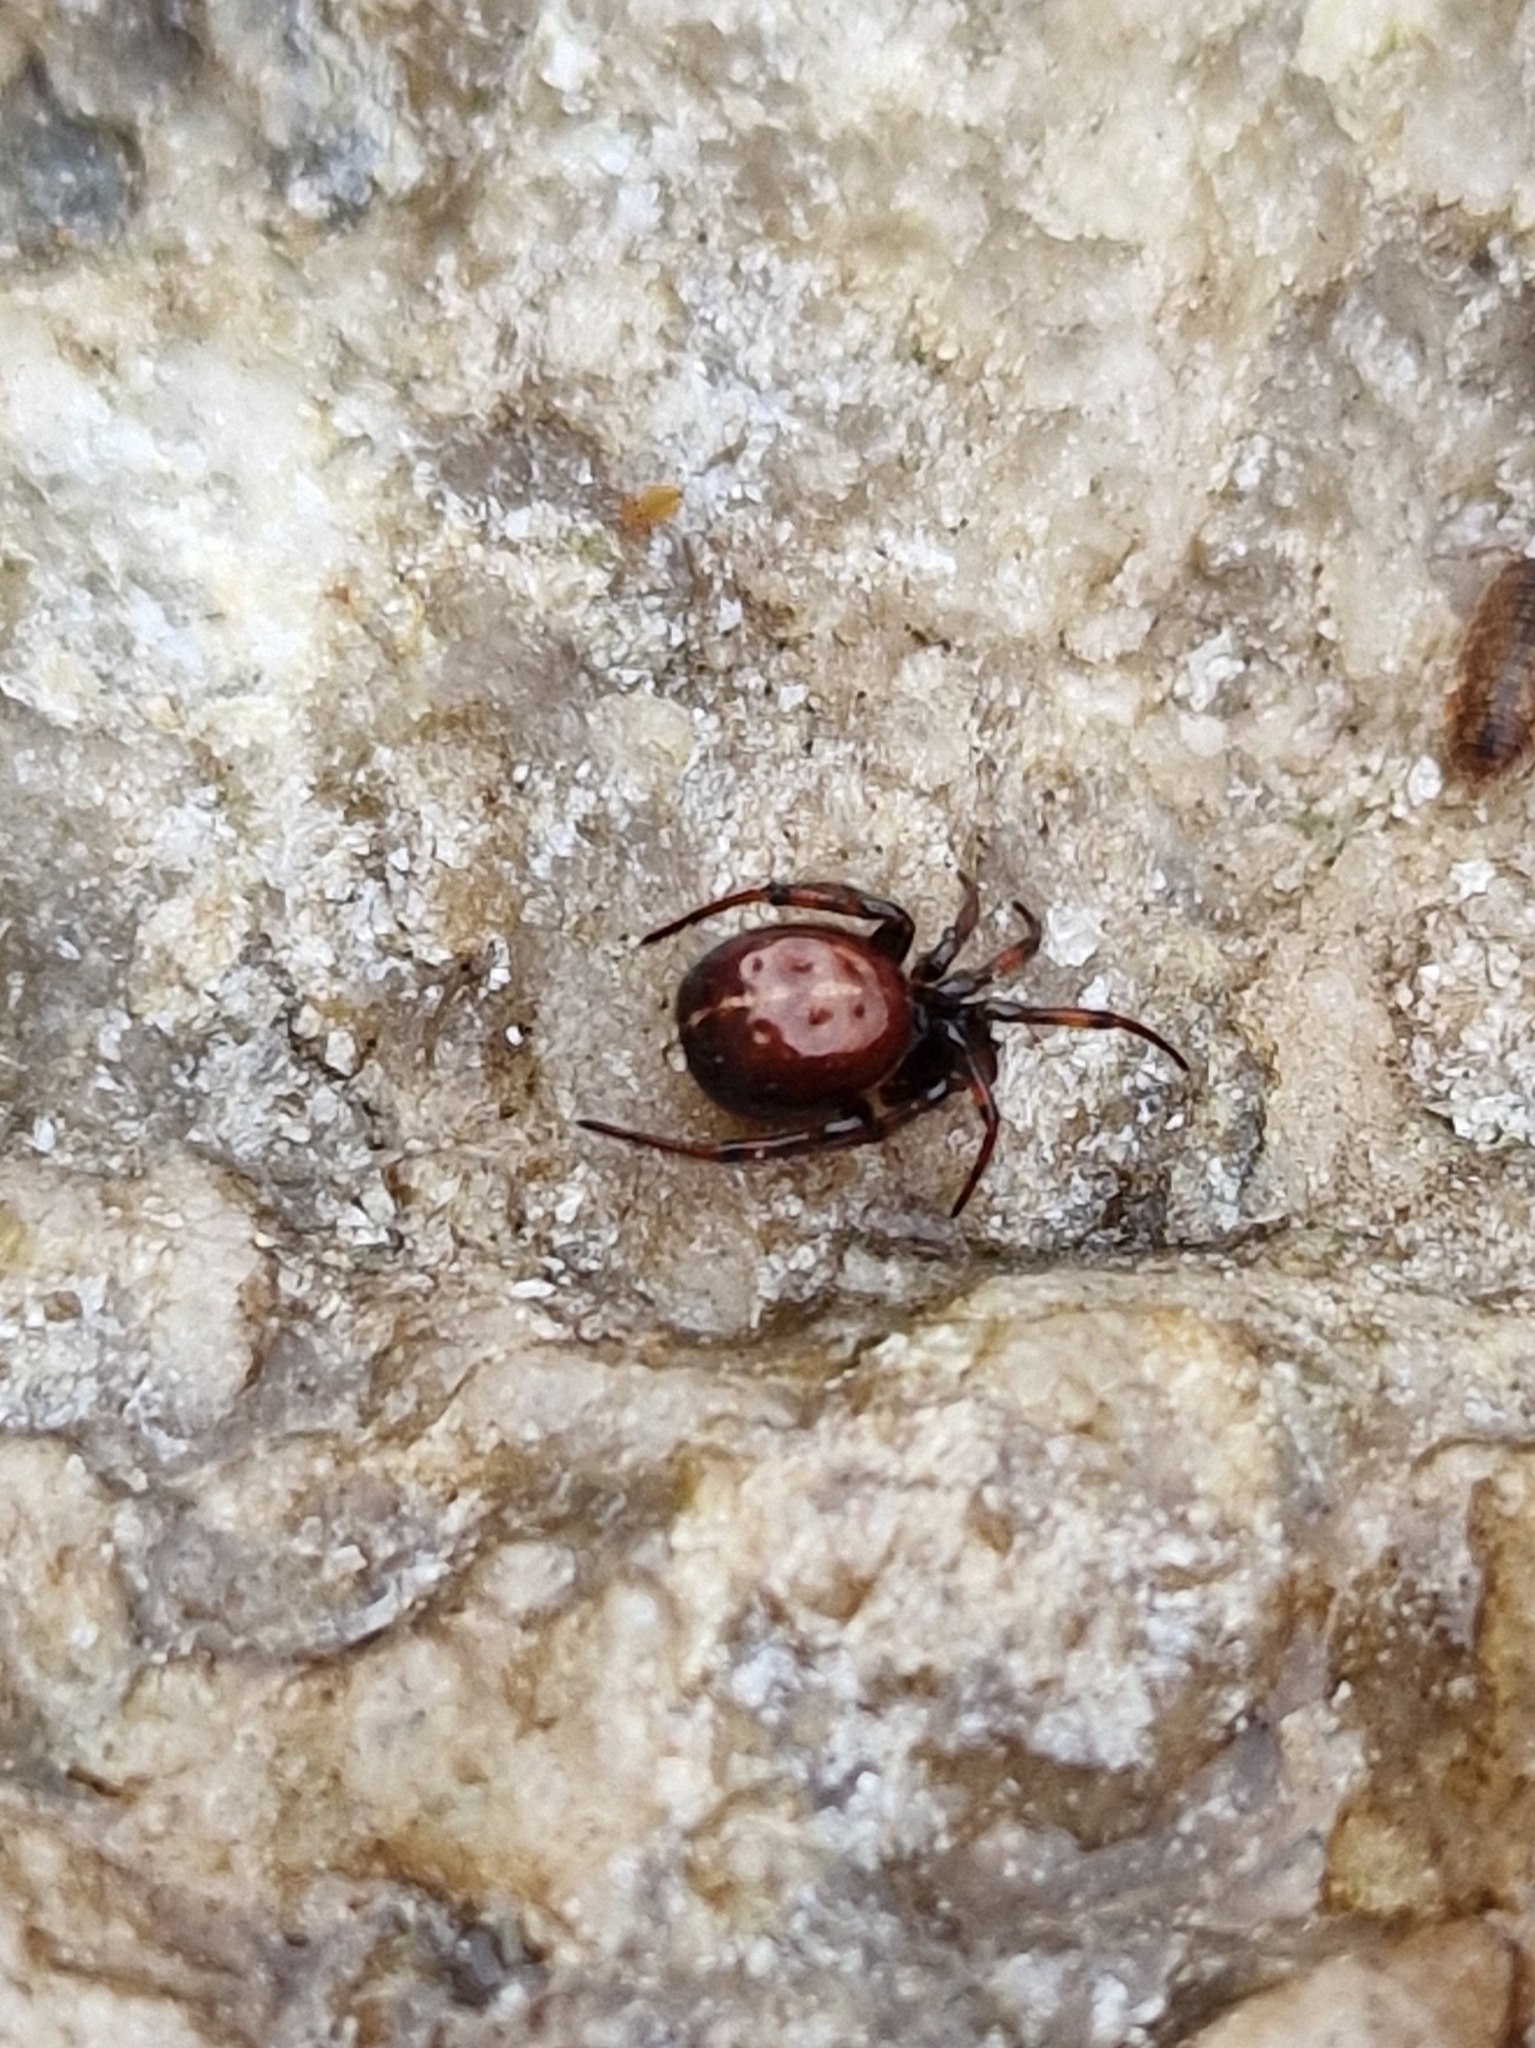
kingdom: Animalia
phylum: Arthropoda
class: Arachnida
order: Araneae
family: Theridiidae
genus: Steatoda
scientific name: Steatoda bipunctata
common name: False widow
